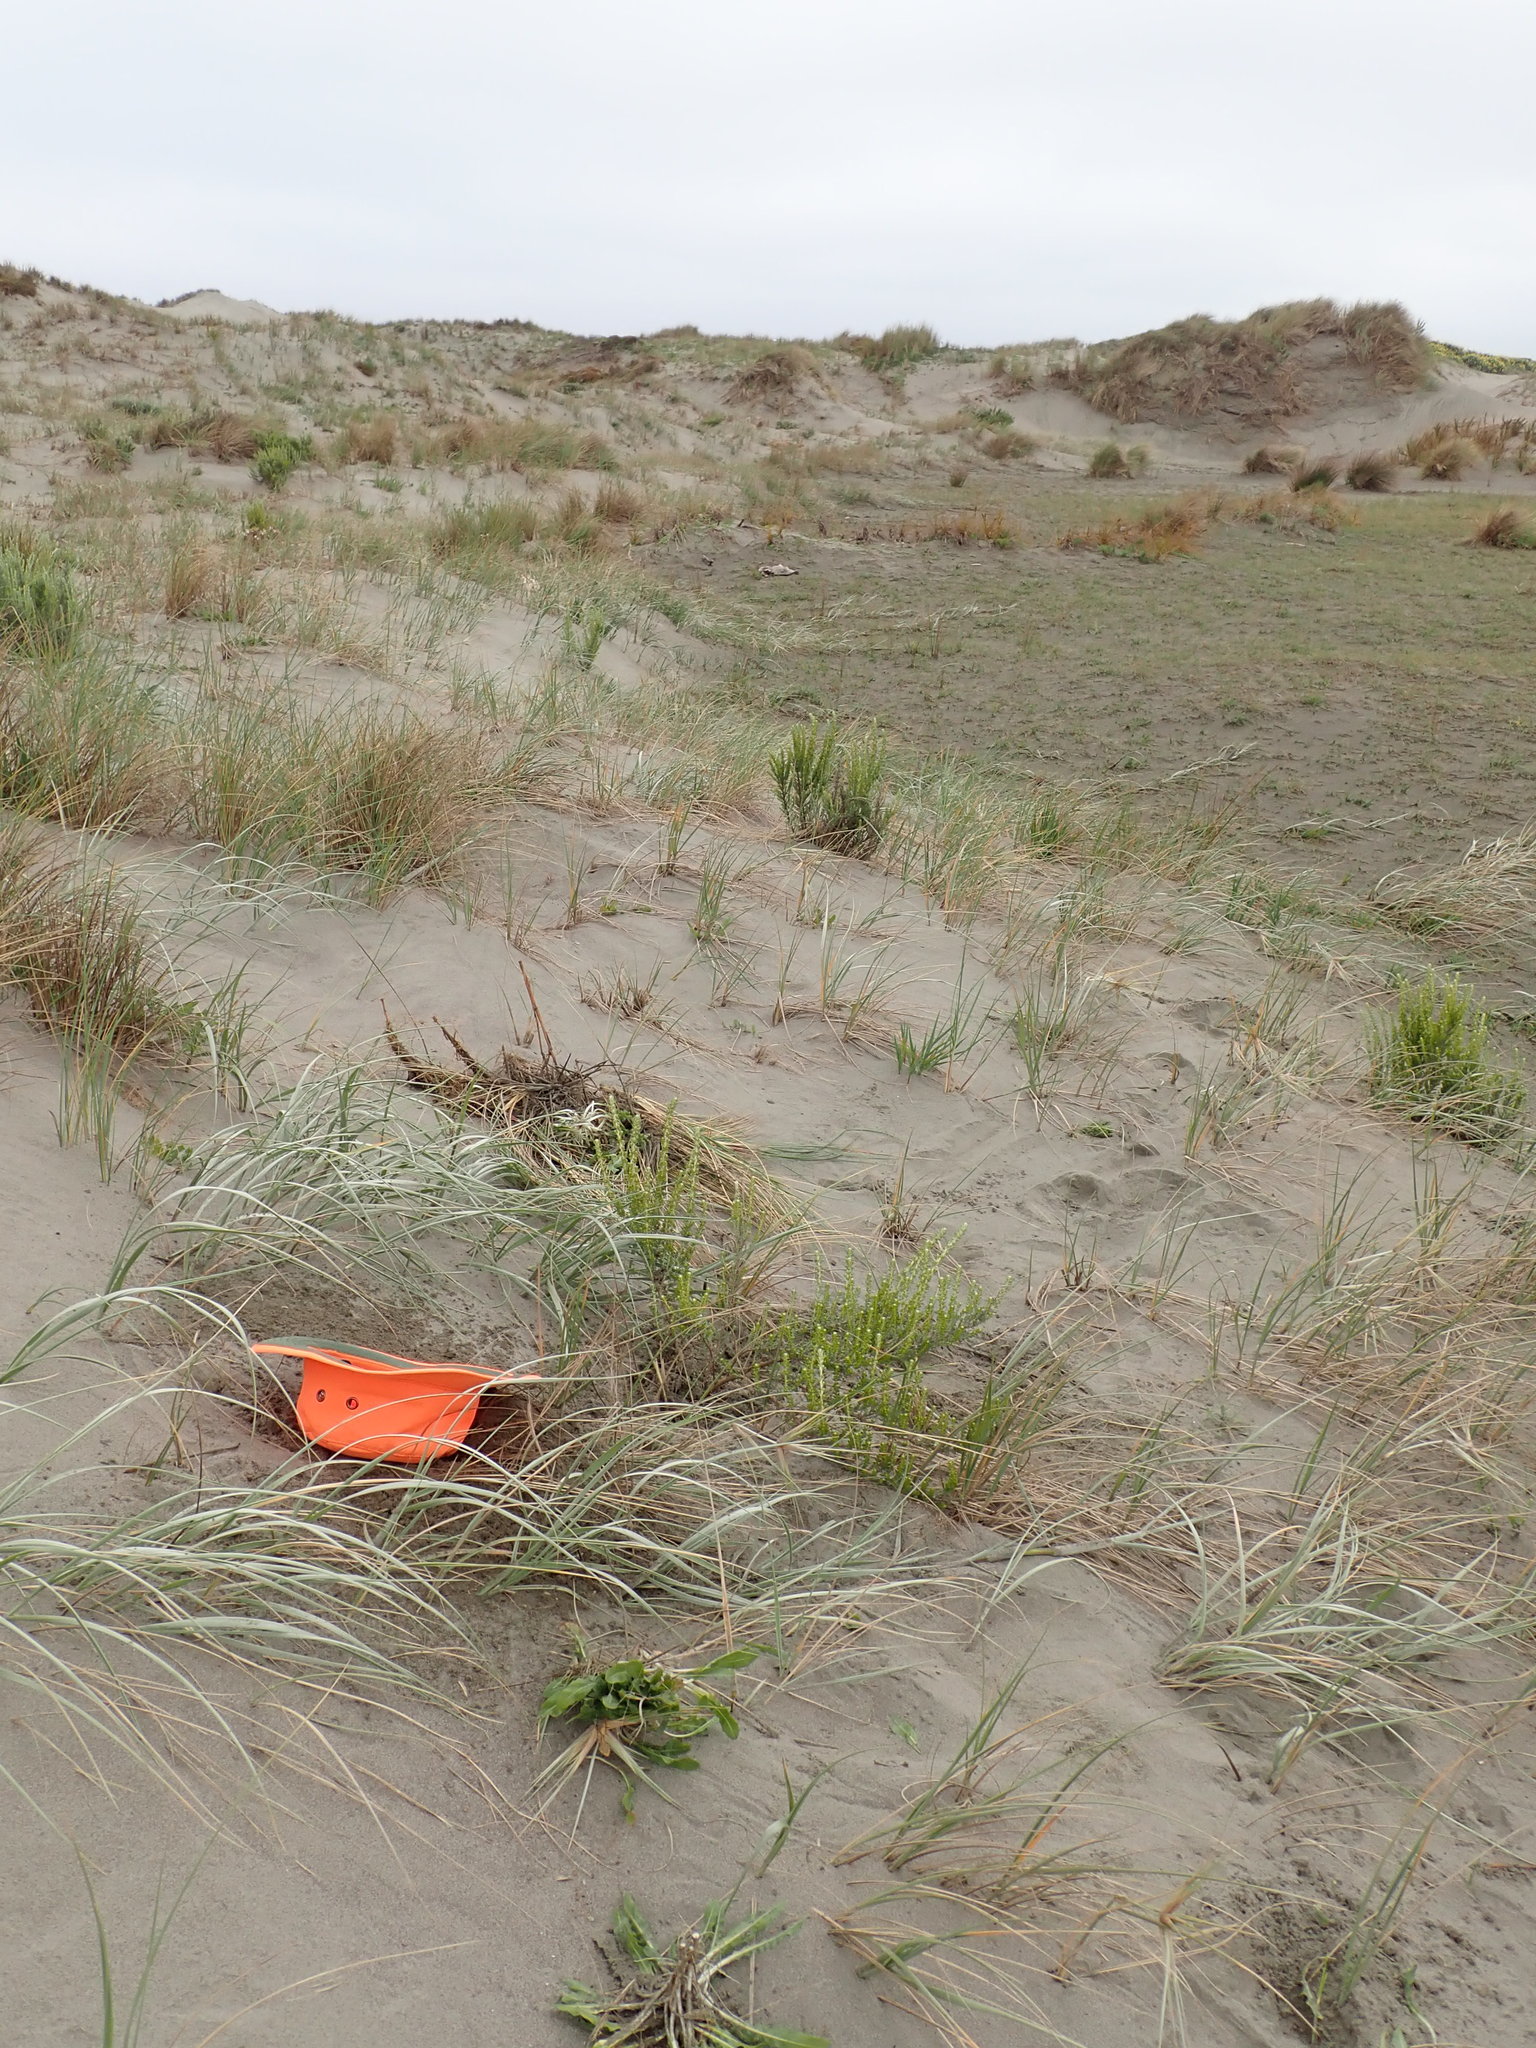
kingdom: Plantae
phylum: Tracheophyta
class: Magnoliopsida
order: Gentianales
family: Rubiaceae
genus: Coprosma
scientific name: Coprosma acerosa
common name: Sand coprosma
